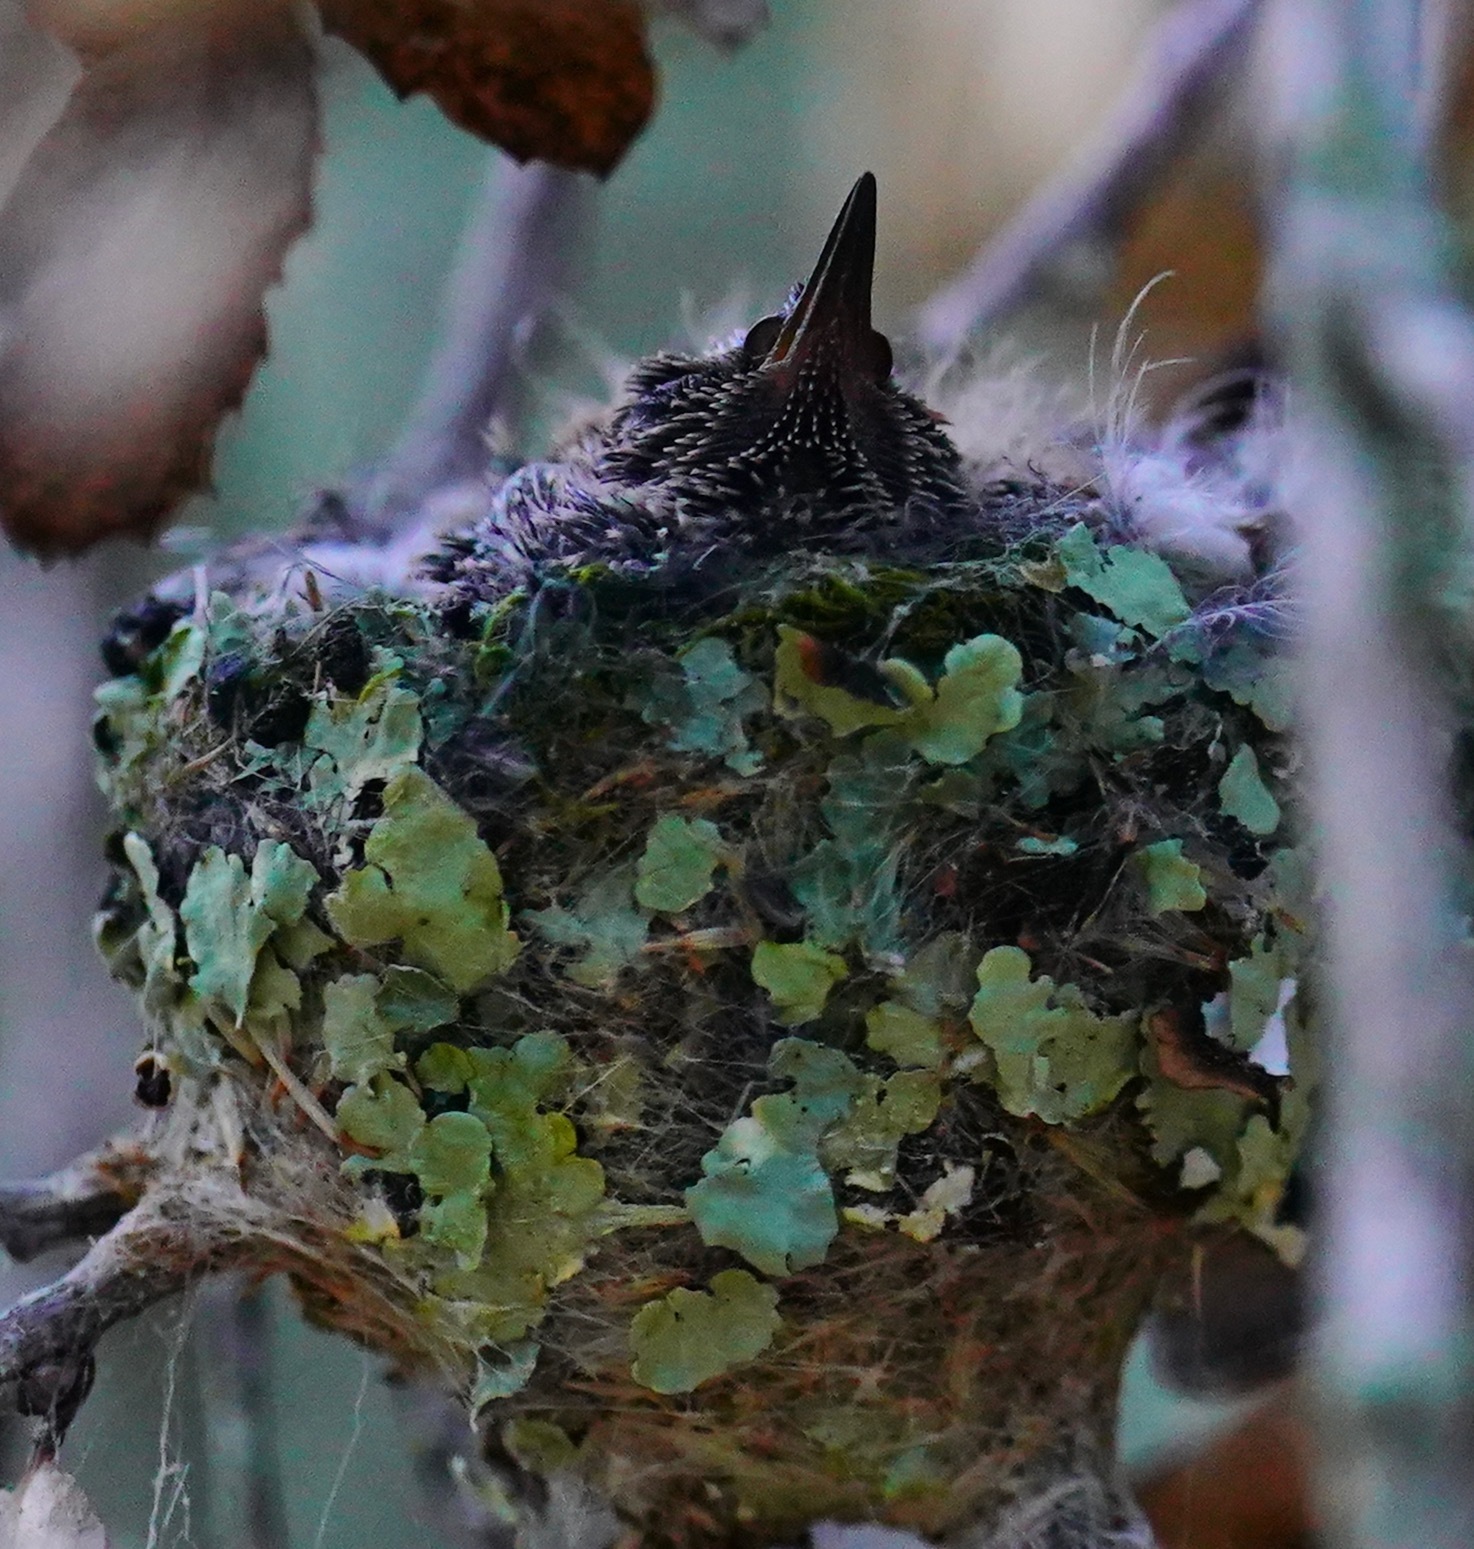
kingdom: Animalia
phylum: Chordata
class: Aves
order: Apodiformes
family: Trochilidae
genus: Calypte
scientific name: Calypte anna
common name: Anna's hummingbird
